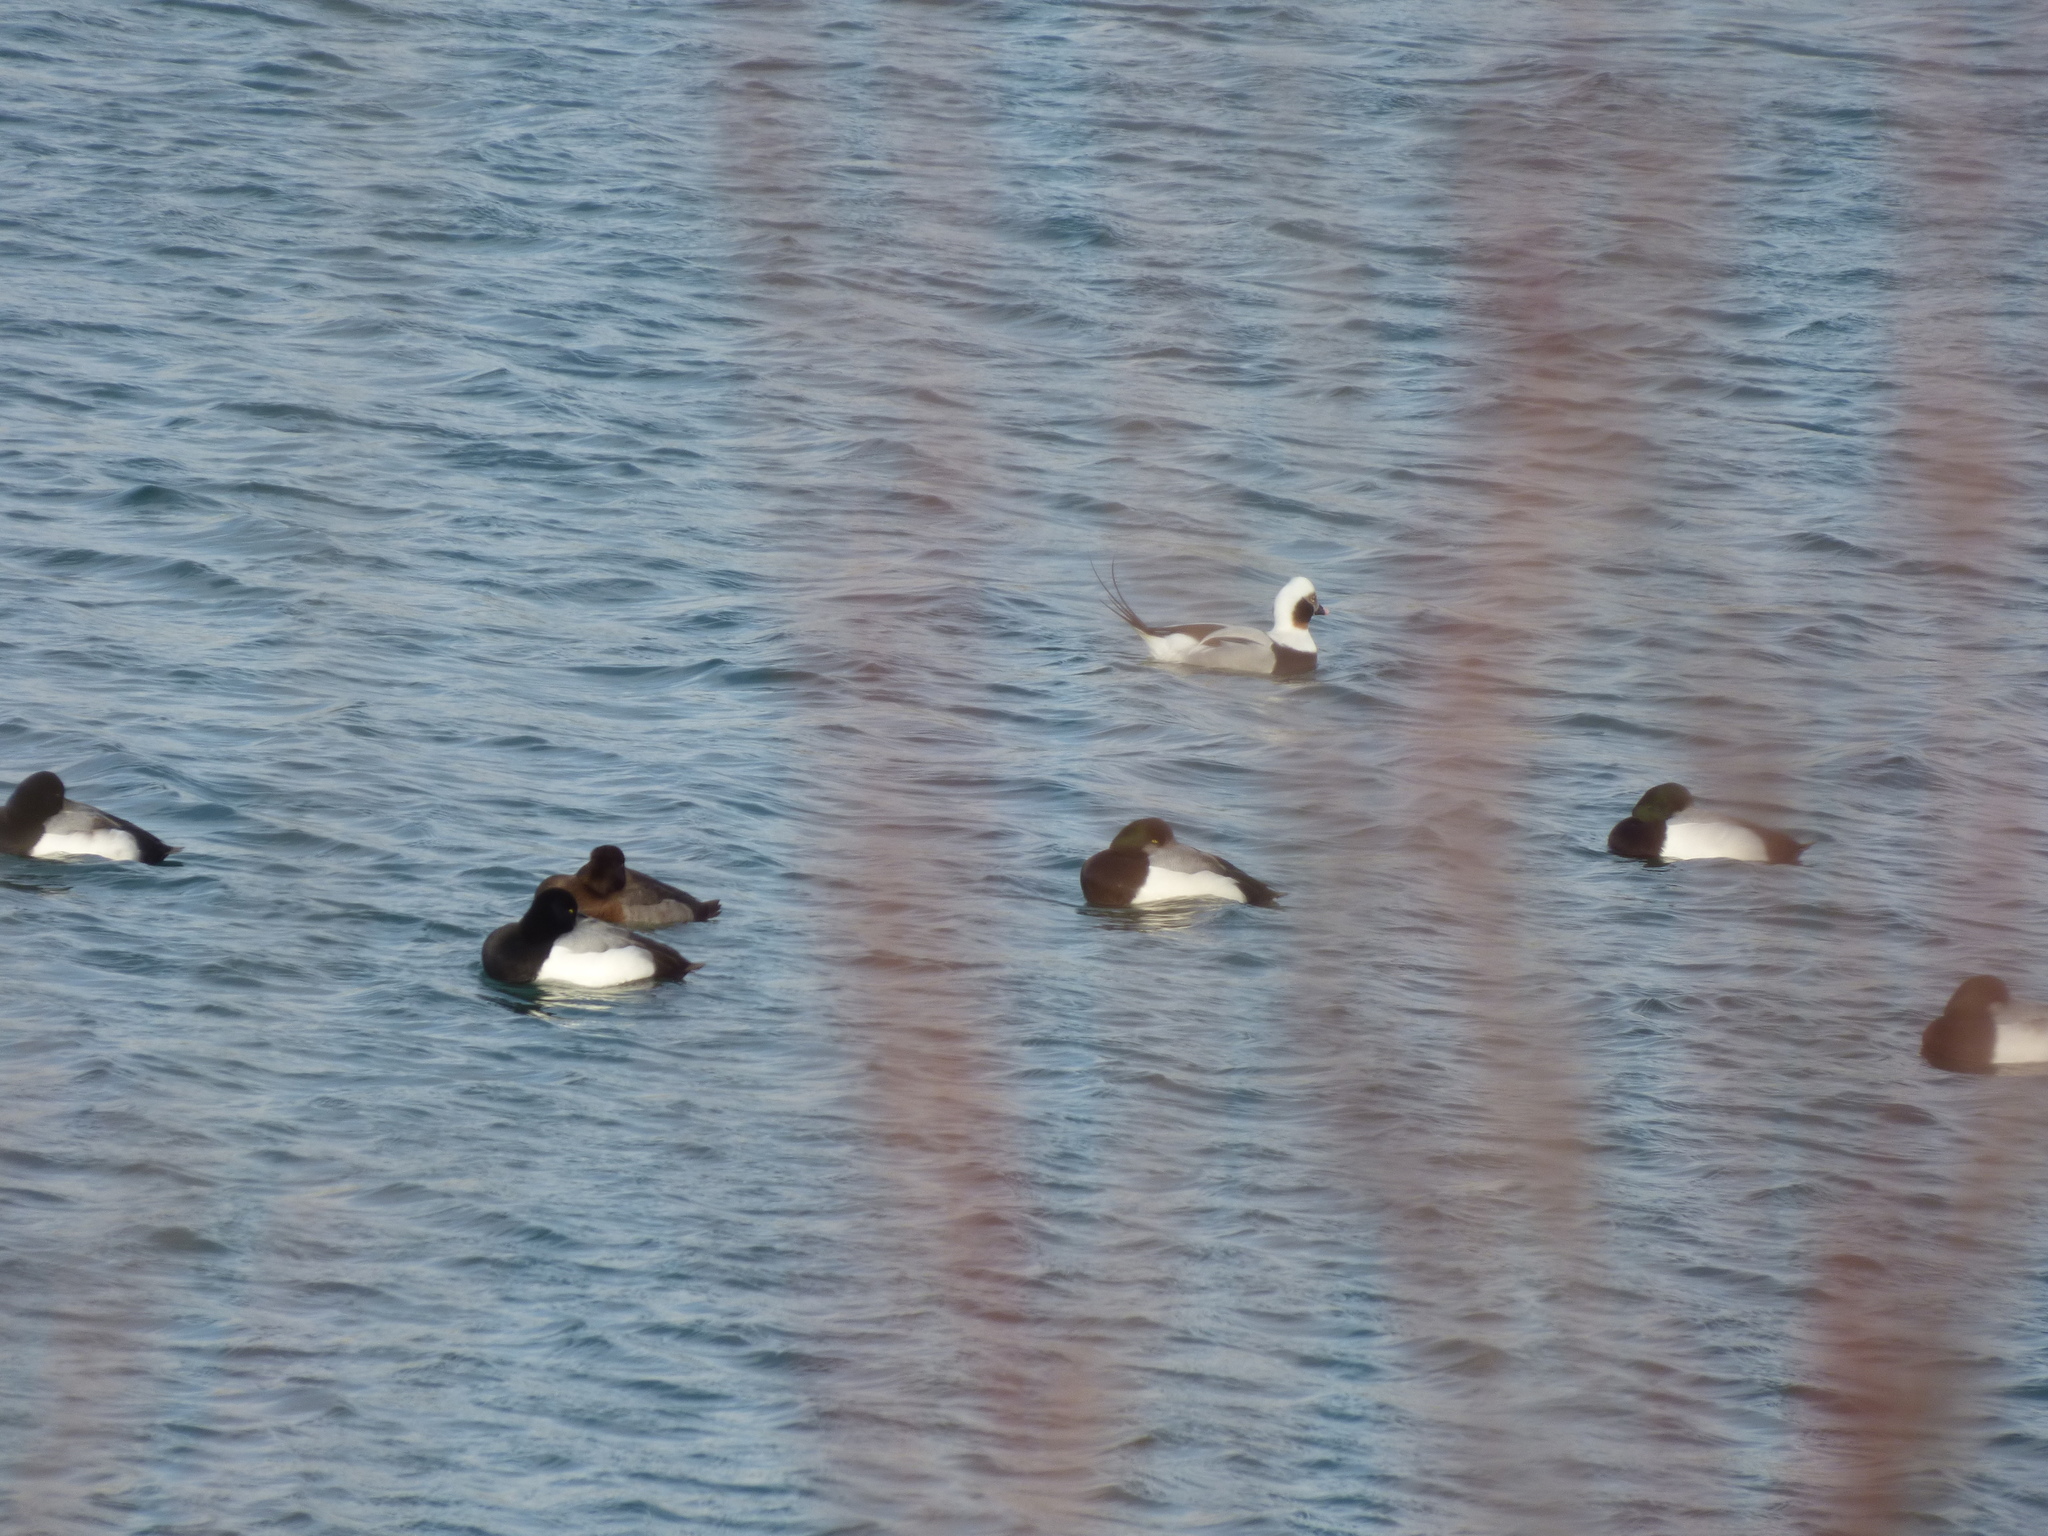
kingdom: Animalia
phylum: Chordata
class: Aves
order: Anseriformes
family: Anatidae
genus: Clangula
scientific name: Clangula hyemalis
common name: Long-tailed duck
